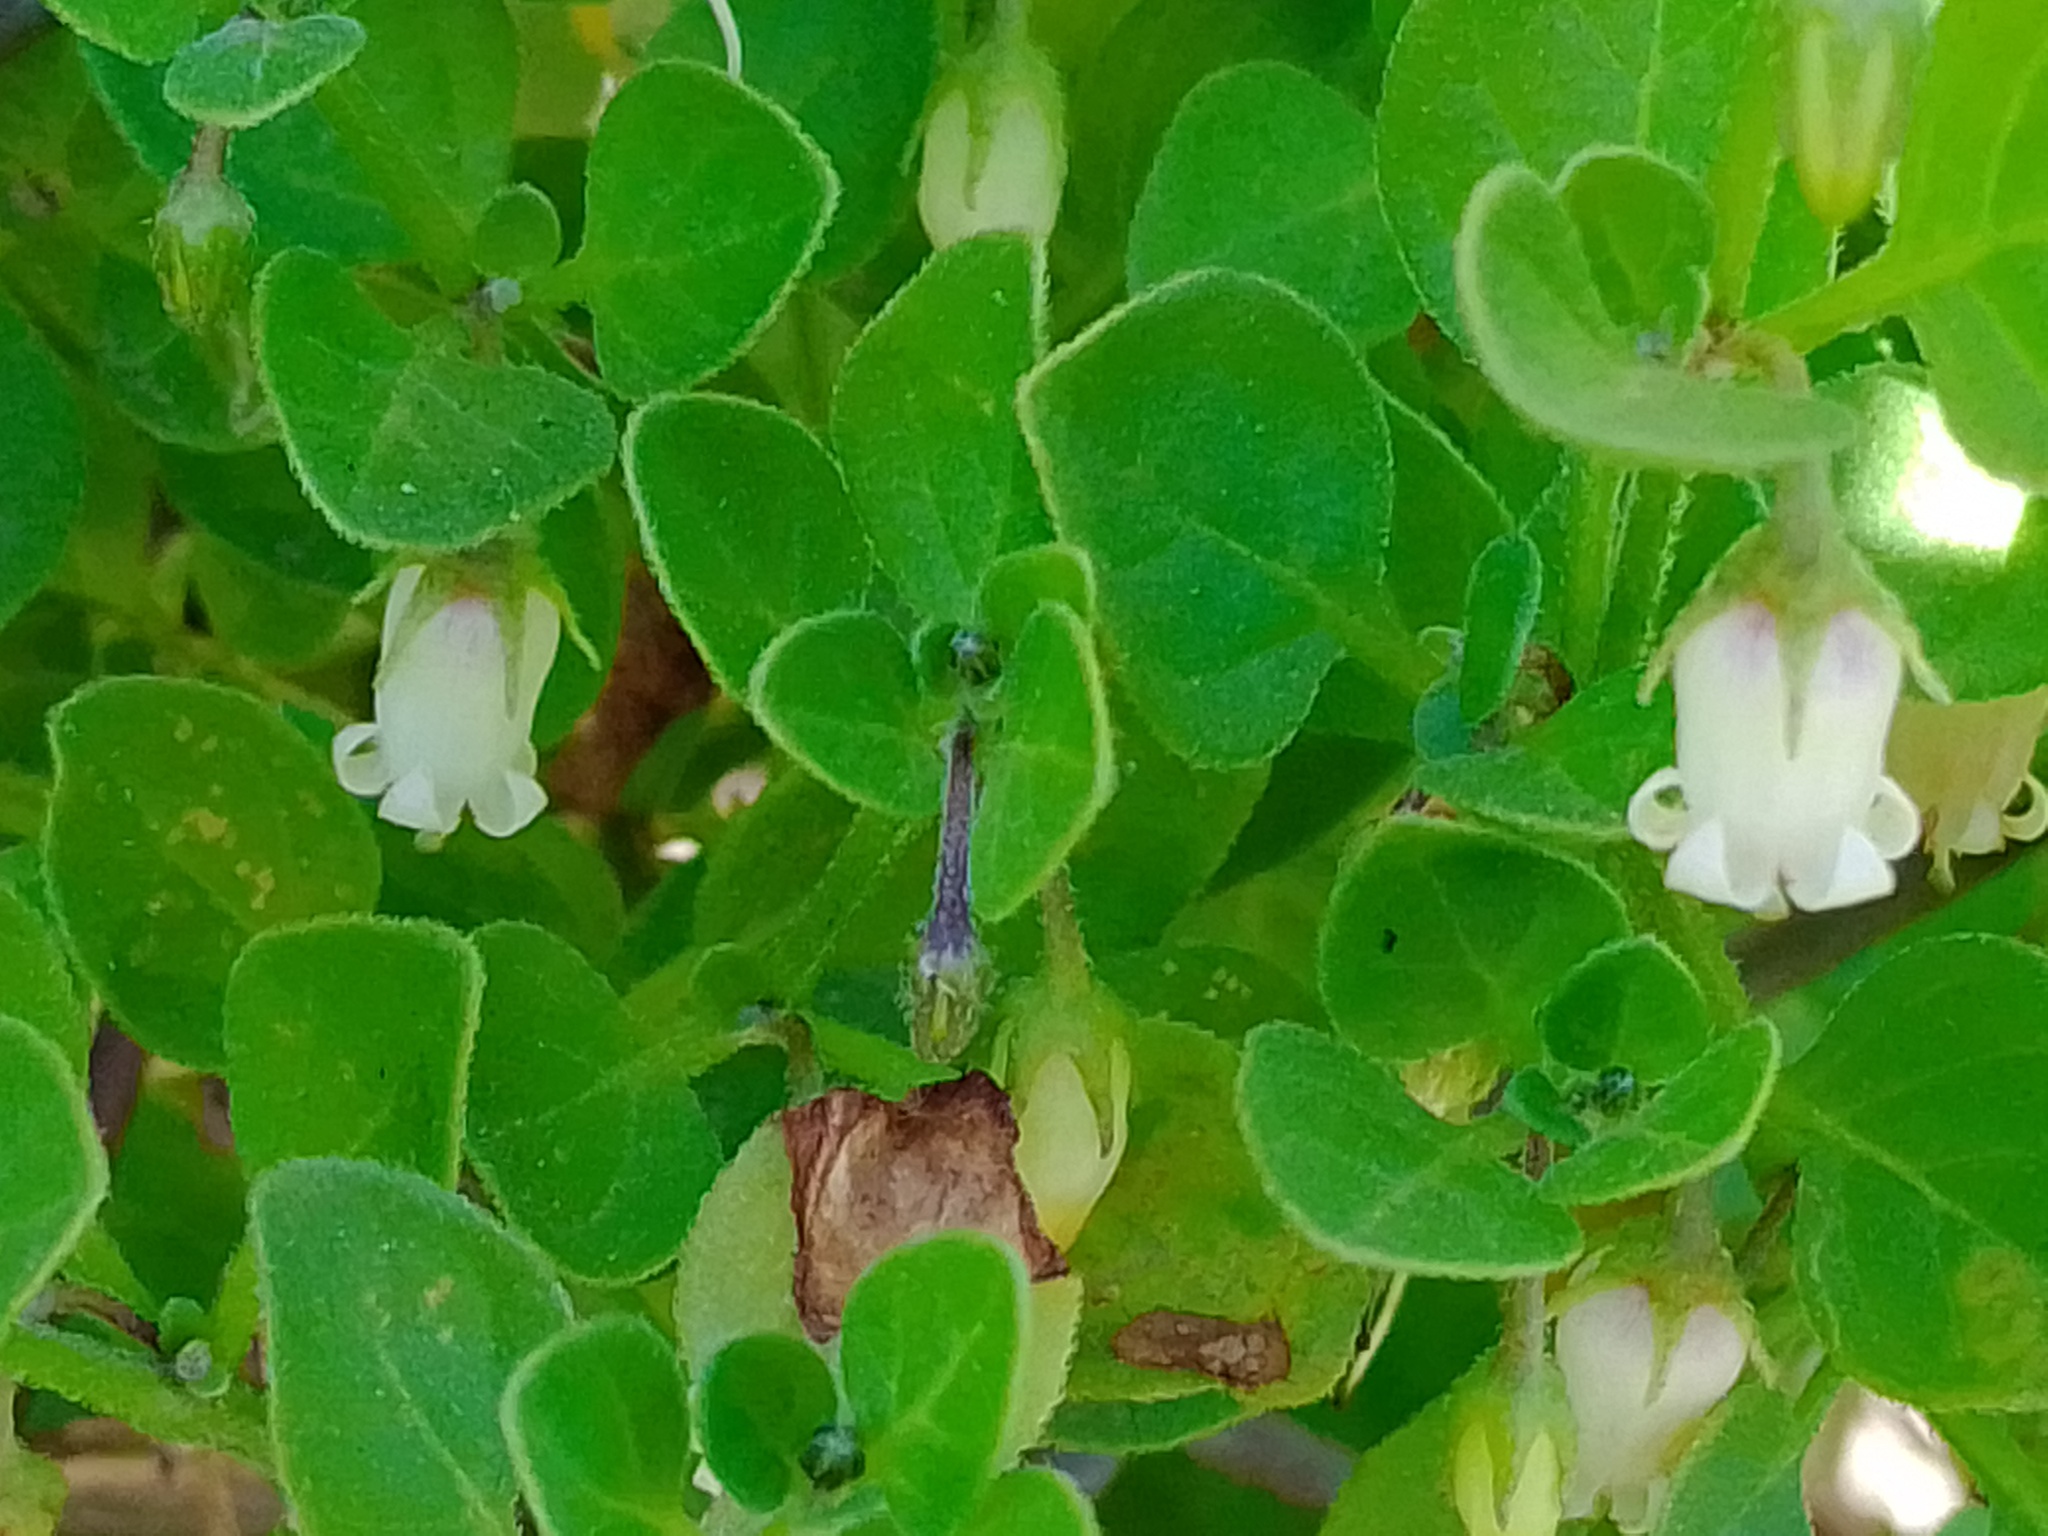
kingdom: Plantae
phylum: Tracheophyta
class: Magnoliopsida
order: Solanales
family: Solanaceae
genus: Salpichroa
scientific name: Salpichroa origanifolia
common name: Lily-of-the-valley-vine
